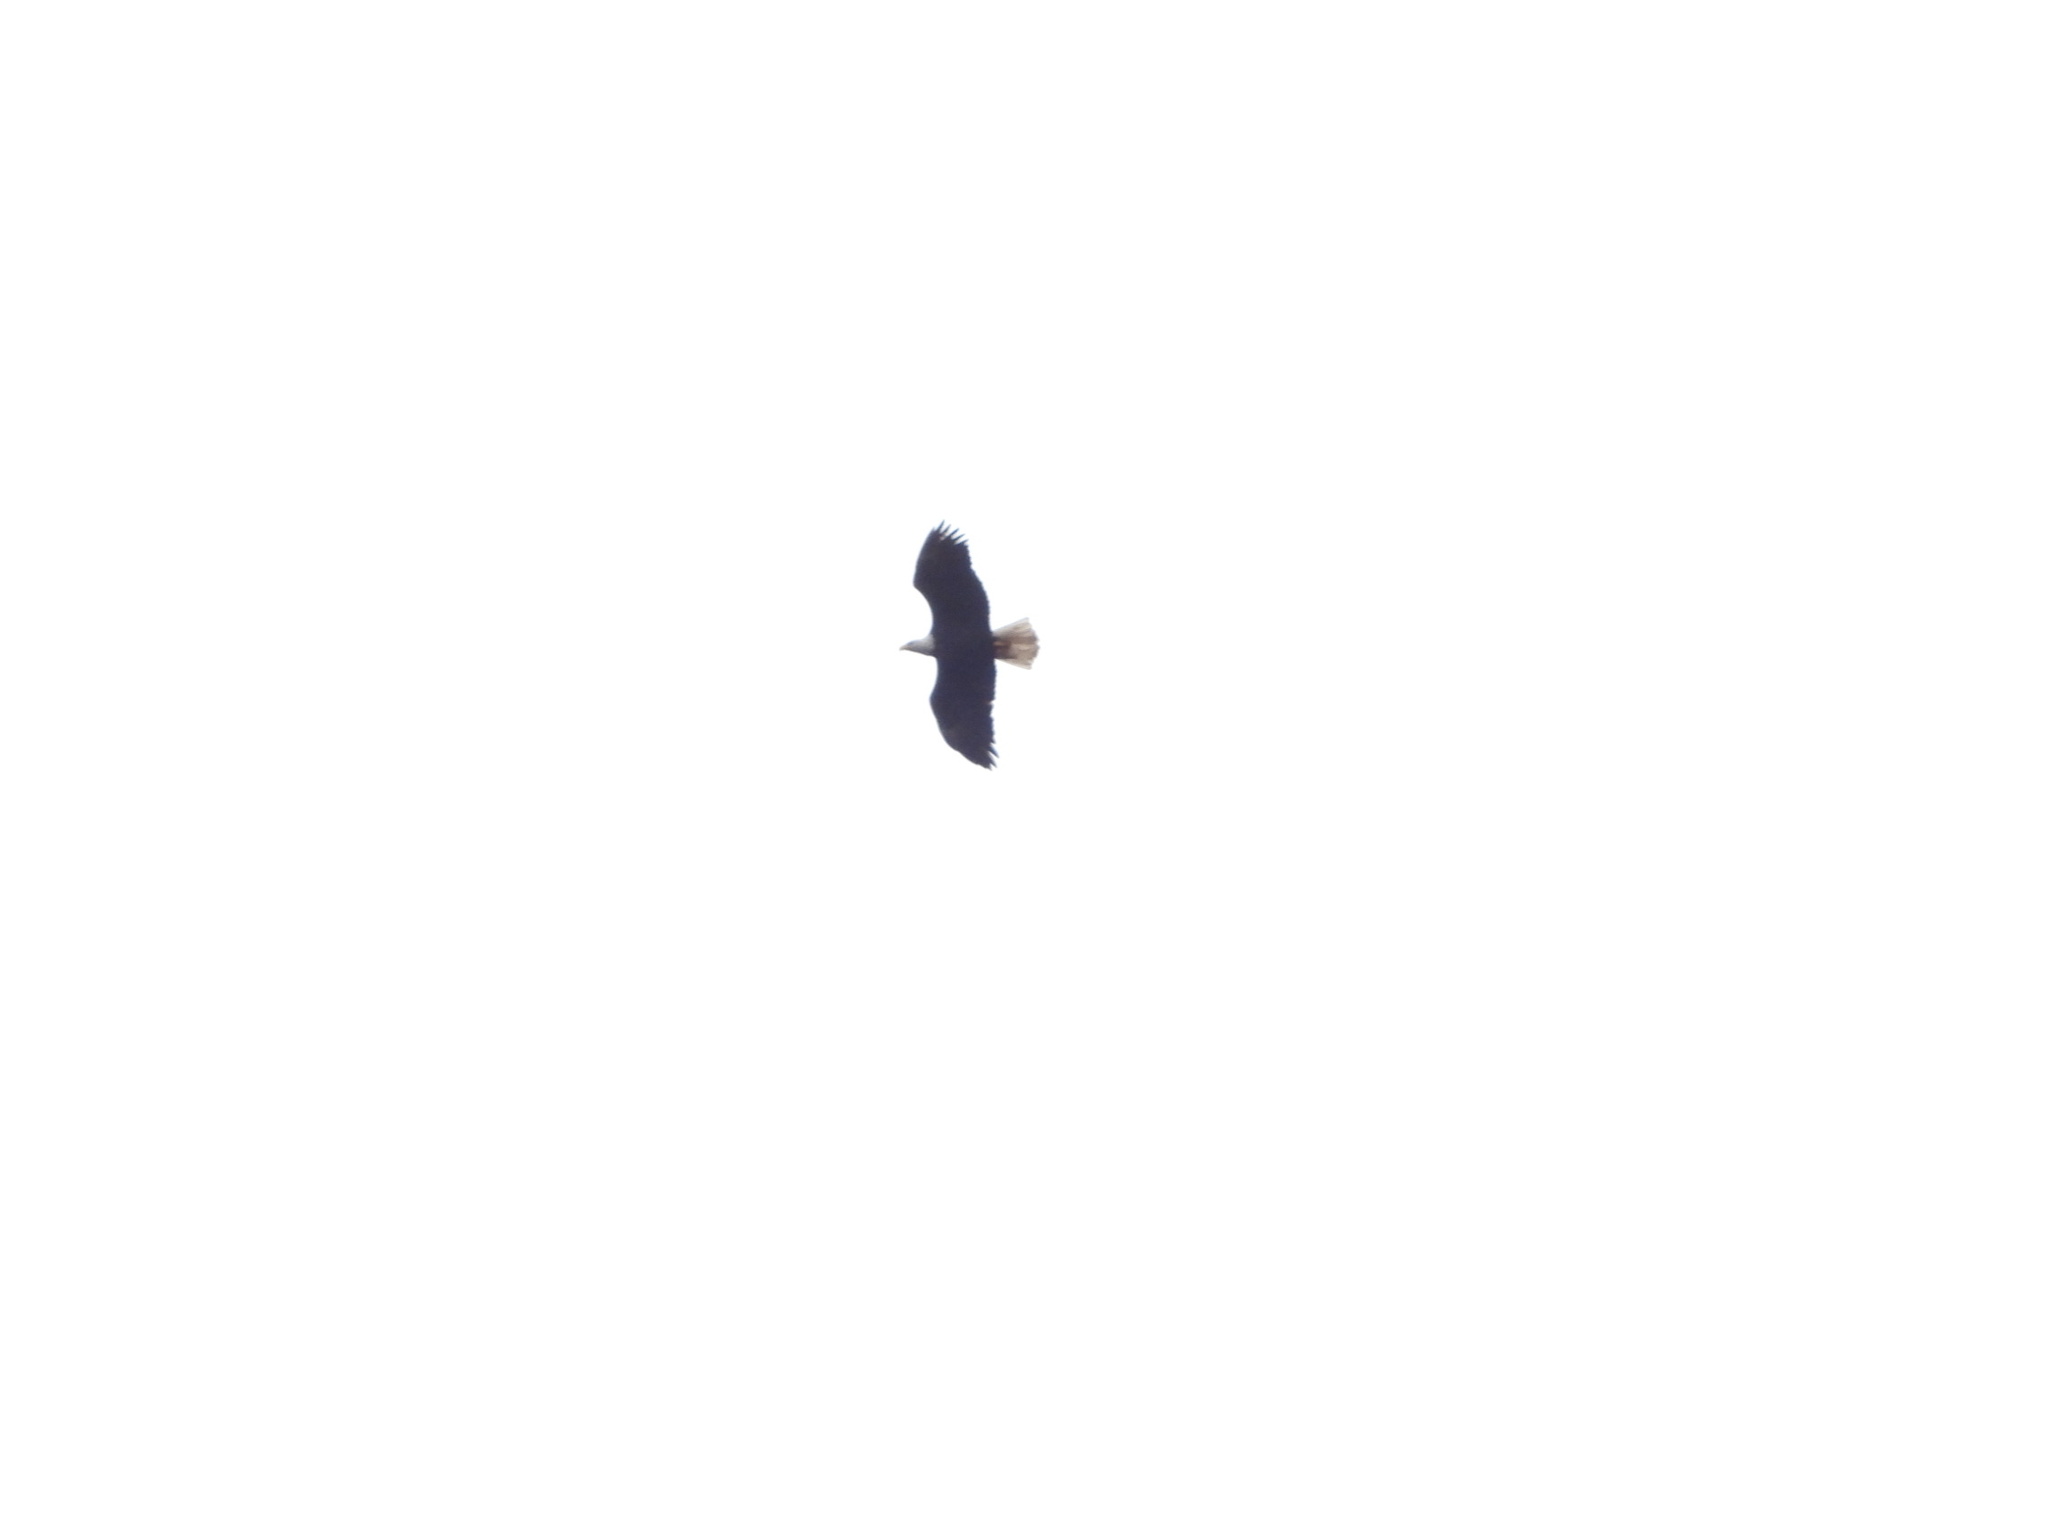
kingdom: Animalia
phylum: Chordata
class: Aves
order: Accipitriformes
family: Accipitridae
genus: Haliaeetus
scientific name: Haliaeetus leucocephalus
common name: Bald eagle
